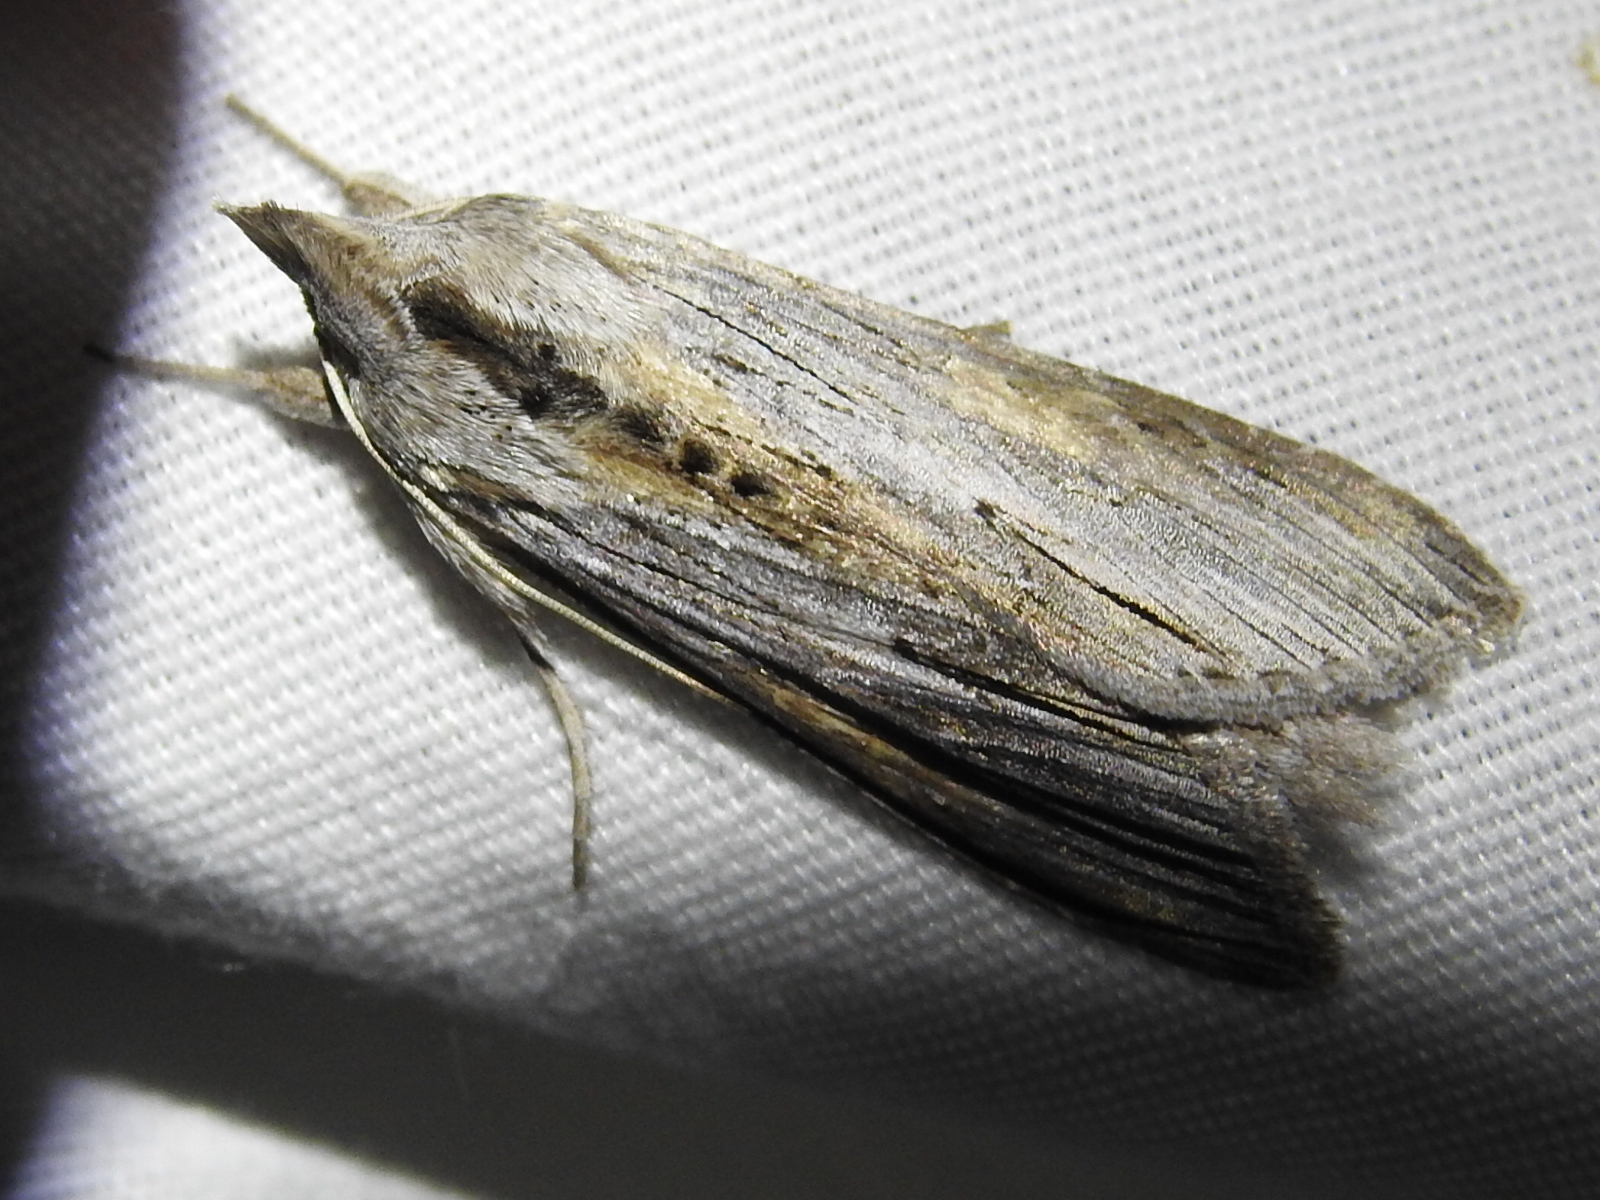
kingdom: Animalia
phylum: Arthropoda
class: Insecta
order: Lepidoptera
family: Noctuidae
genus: Cucullia
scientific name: Cucullia laetifica
